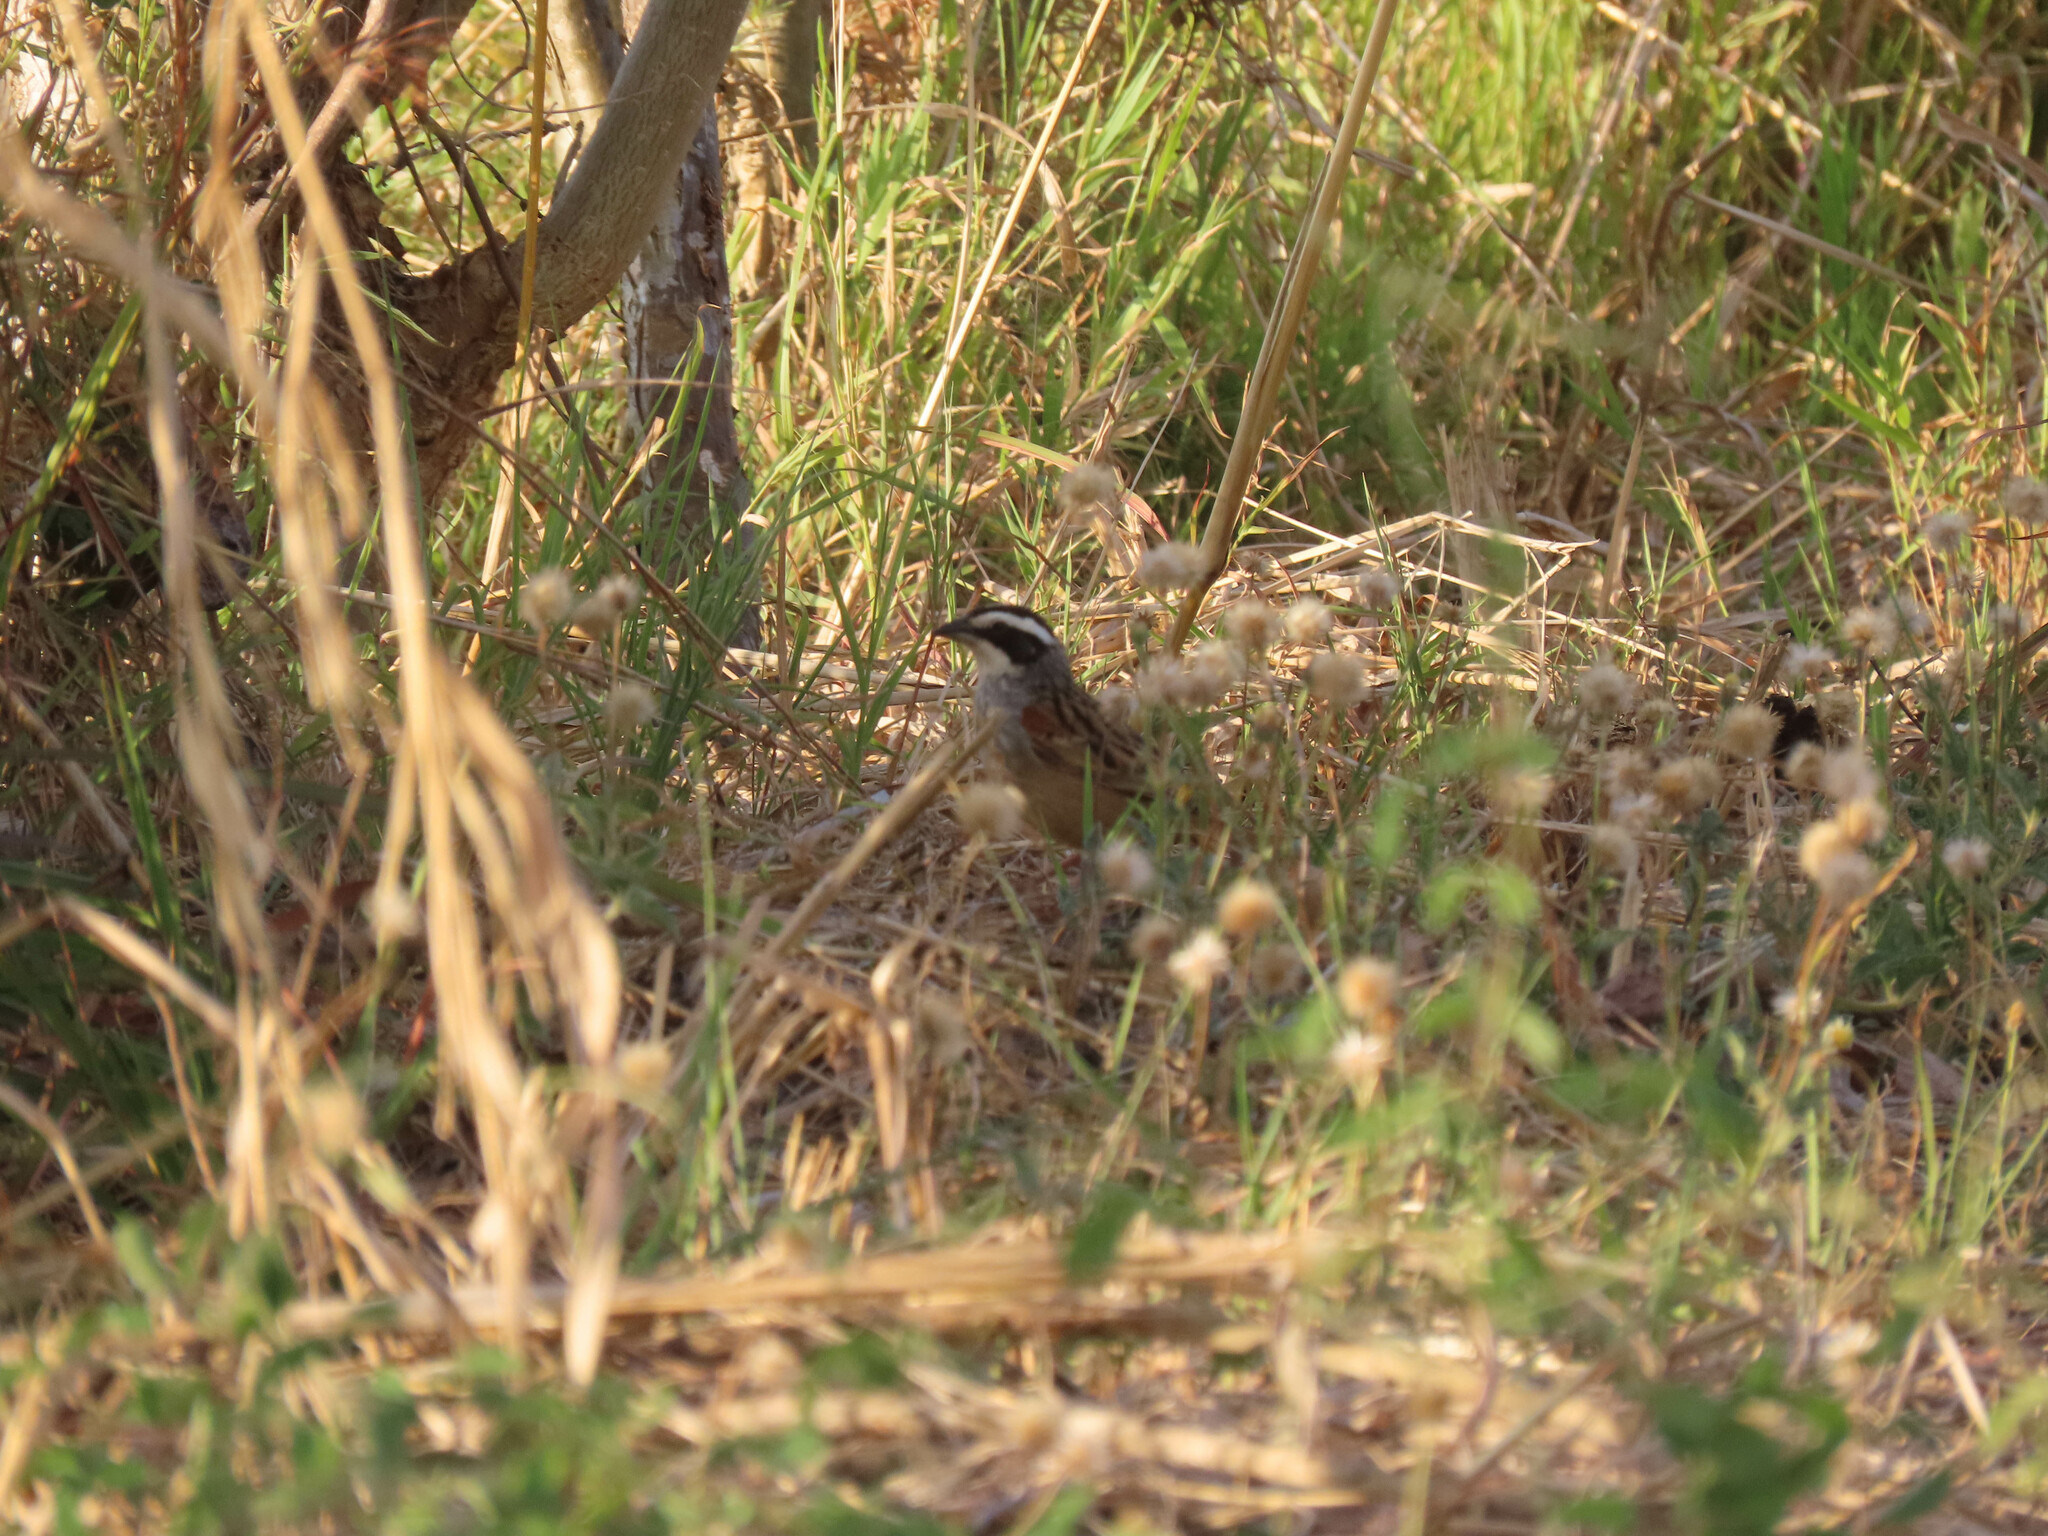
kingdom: Animalia
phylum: Chordata
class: Aves
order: Passeriformes
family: Passerellidae
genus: Peucaea
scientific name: Peucaea ruficauda
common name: Stripe-headed sparrow
